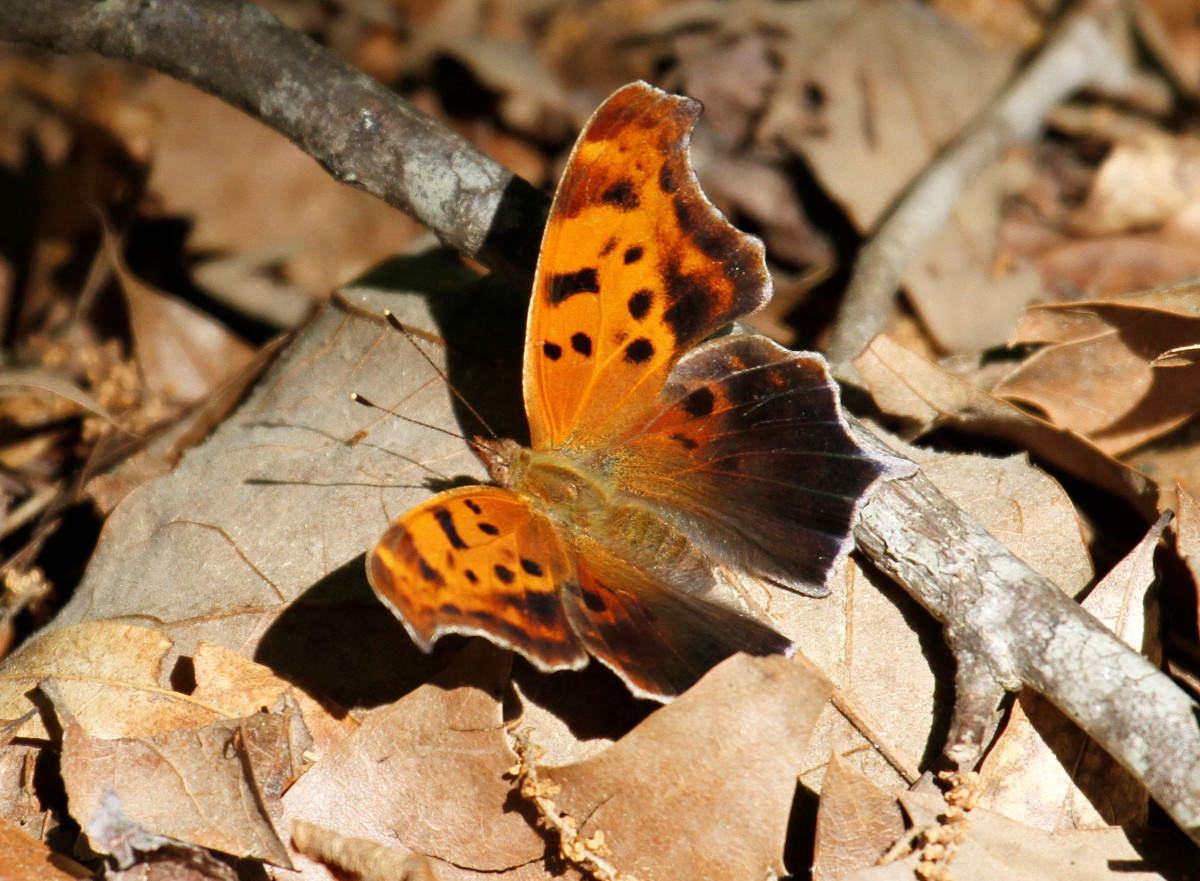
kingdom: Animalia
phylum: Arthropoda
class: Insecta
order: Lepidoptera
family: Nymphalidae
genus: Polygonia
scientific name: Polygonia interrogationis
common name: Question mark
